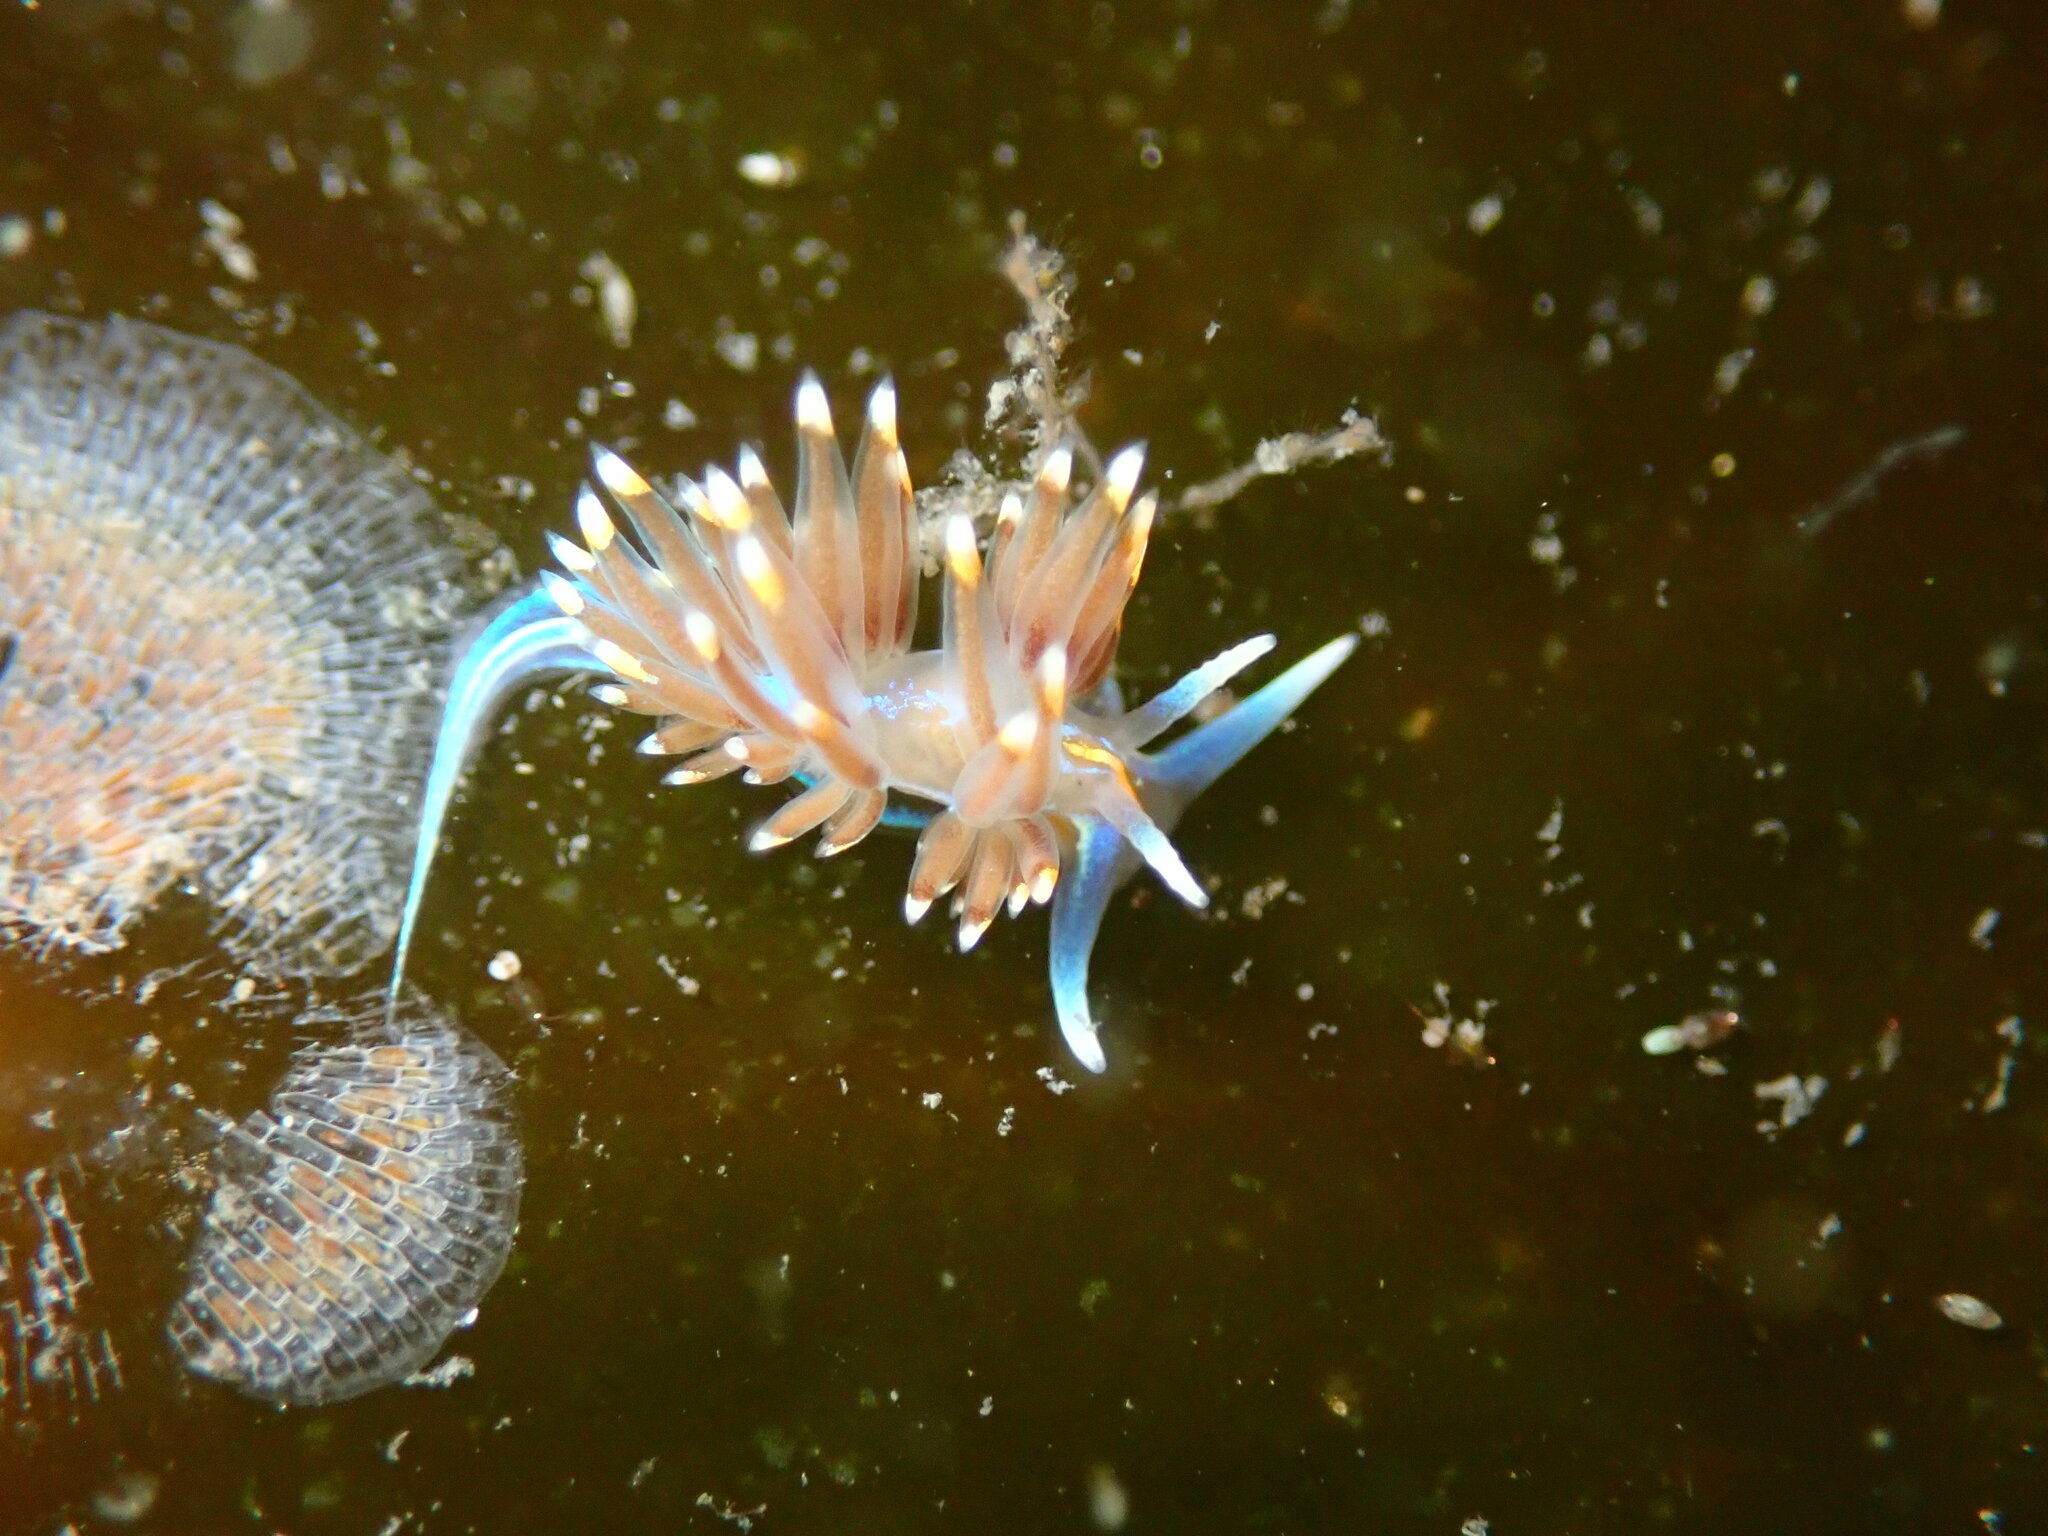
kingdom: Animalia
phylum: Mollusca
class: Gastropoda
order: Nudibranchia
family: Myrrhinidae
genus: Hermissenda
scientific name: Hermissenda opalescens
